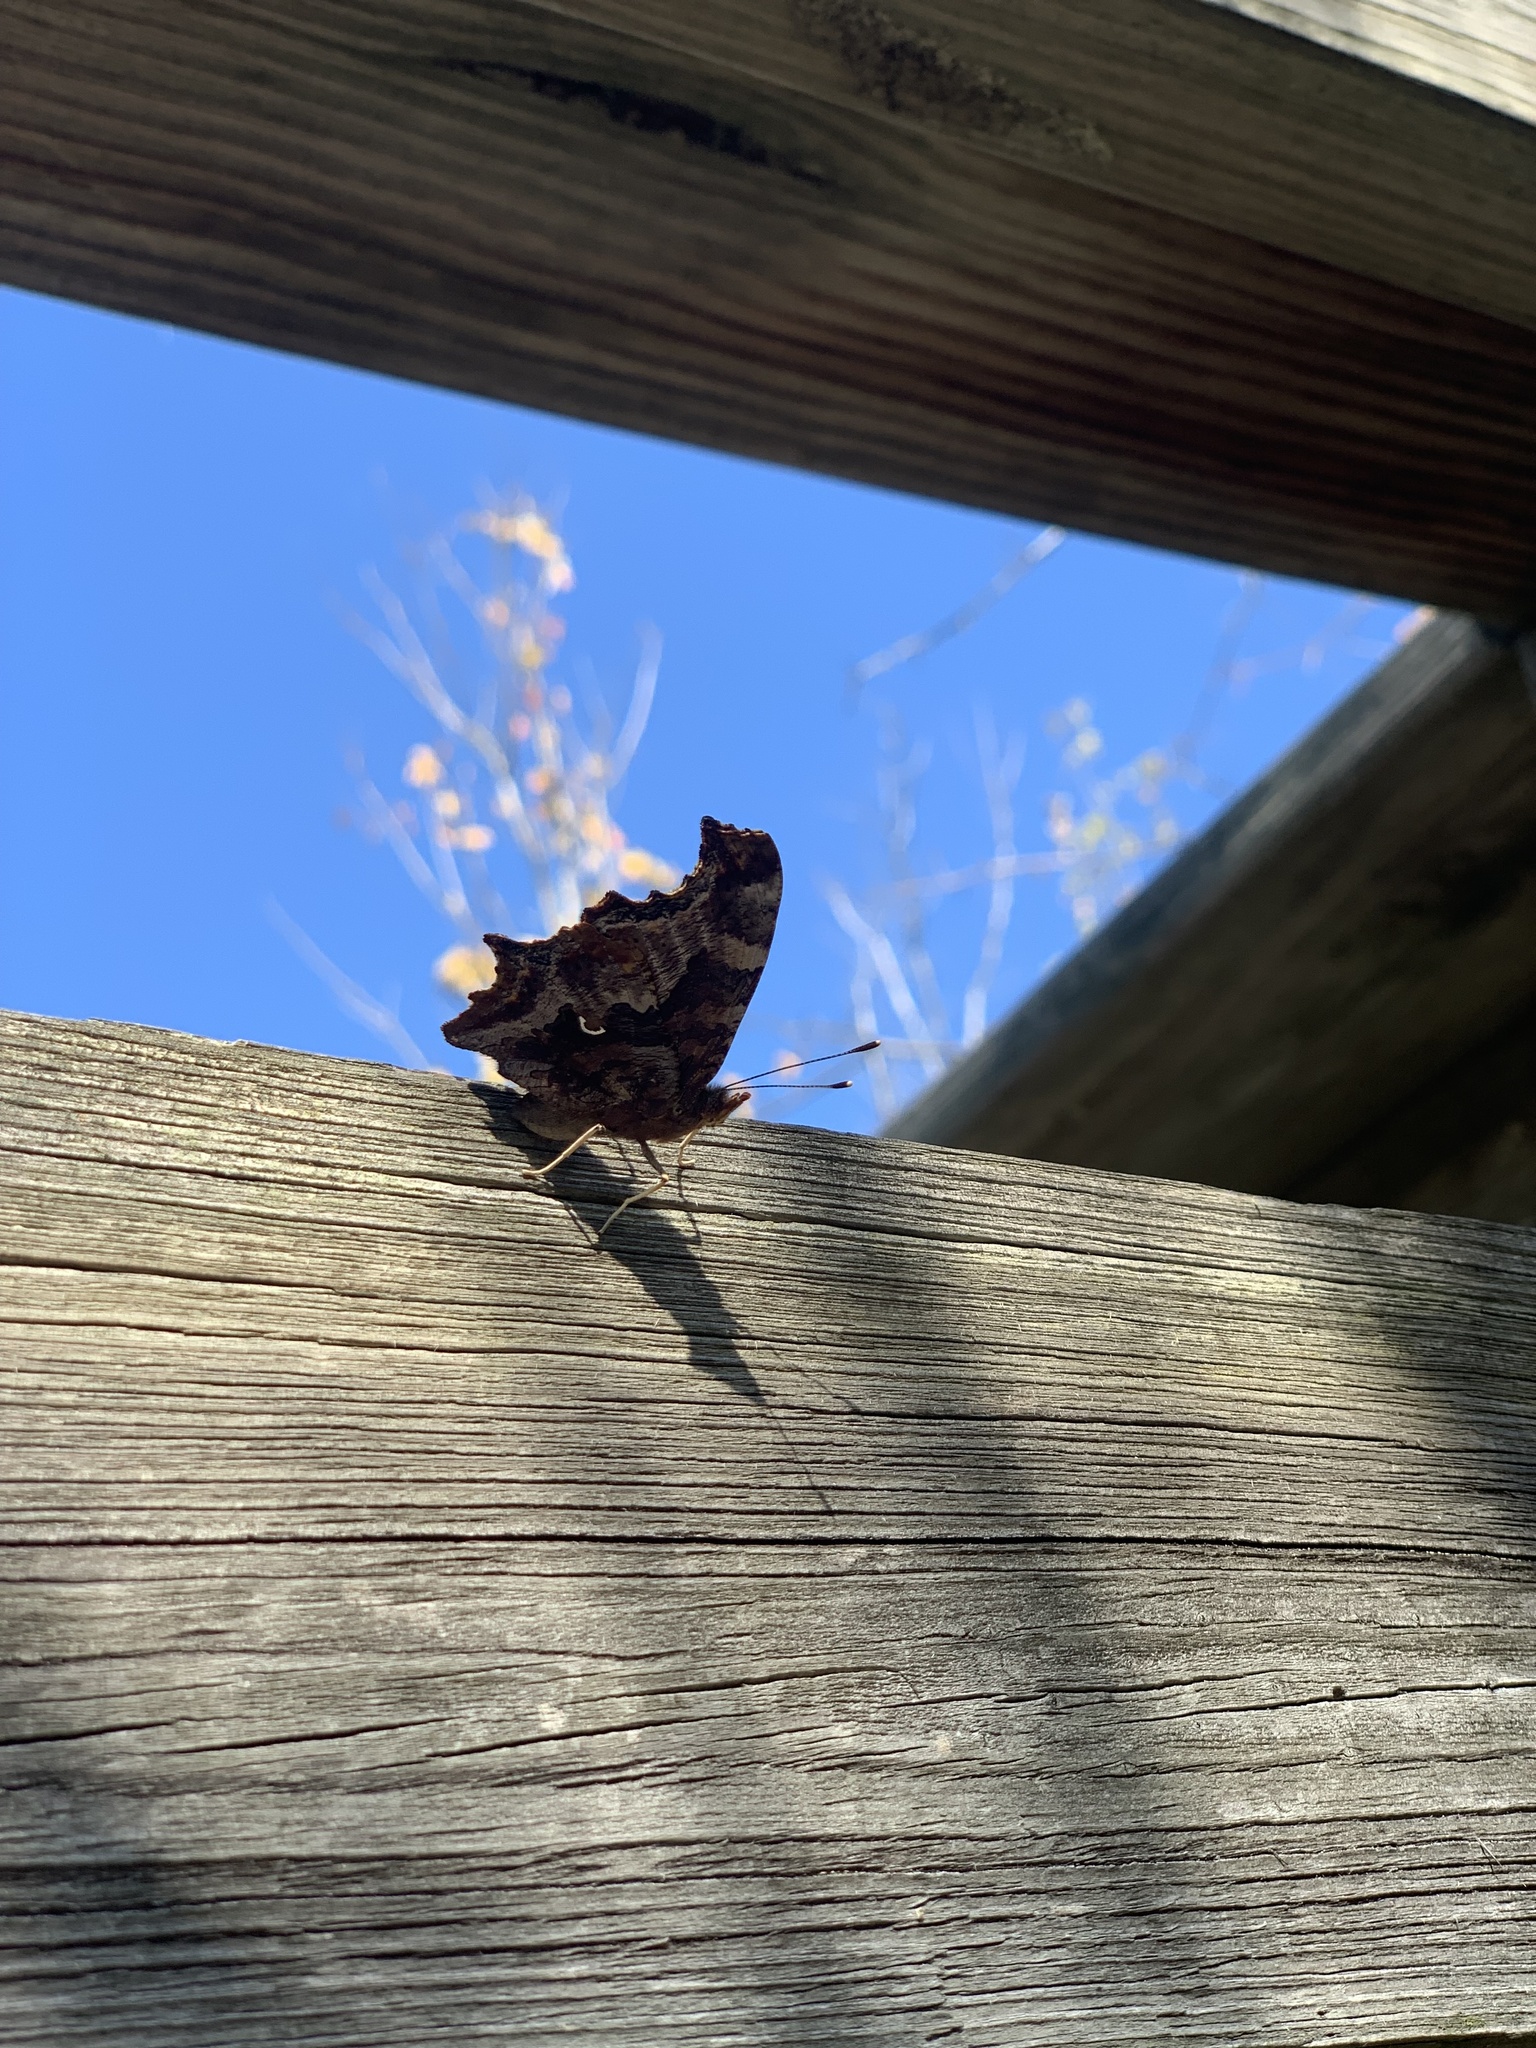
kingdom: Animalia
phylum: Arthropoda
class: Insecta
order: Lepidoptera
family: Nymphalidae
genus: Polygonia
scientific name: Polygonia comma
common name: Eastern comma
